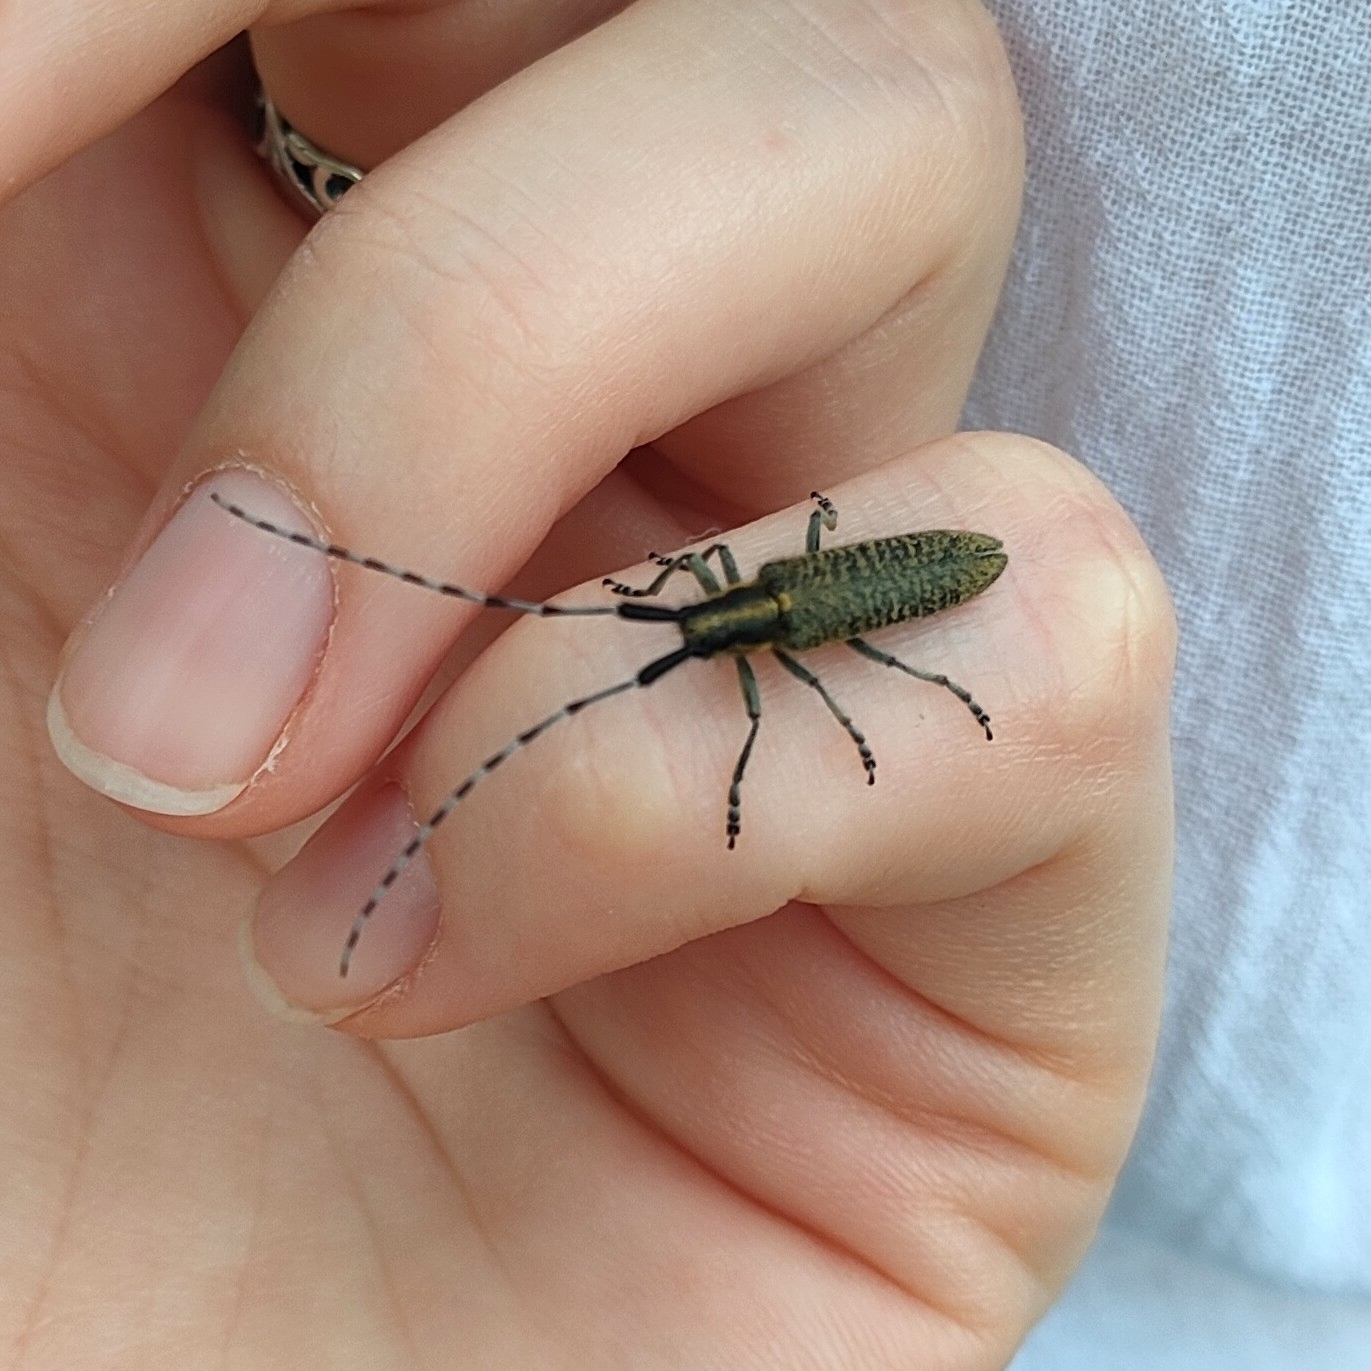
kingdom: Animalia
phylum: Arthropoda
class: Insecta
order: Coleoptera
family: Cerambycidae
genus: Agapanthia
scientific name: Agapanthia villosoviridescens
